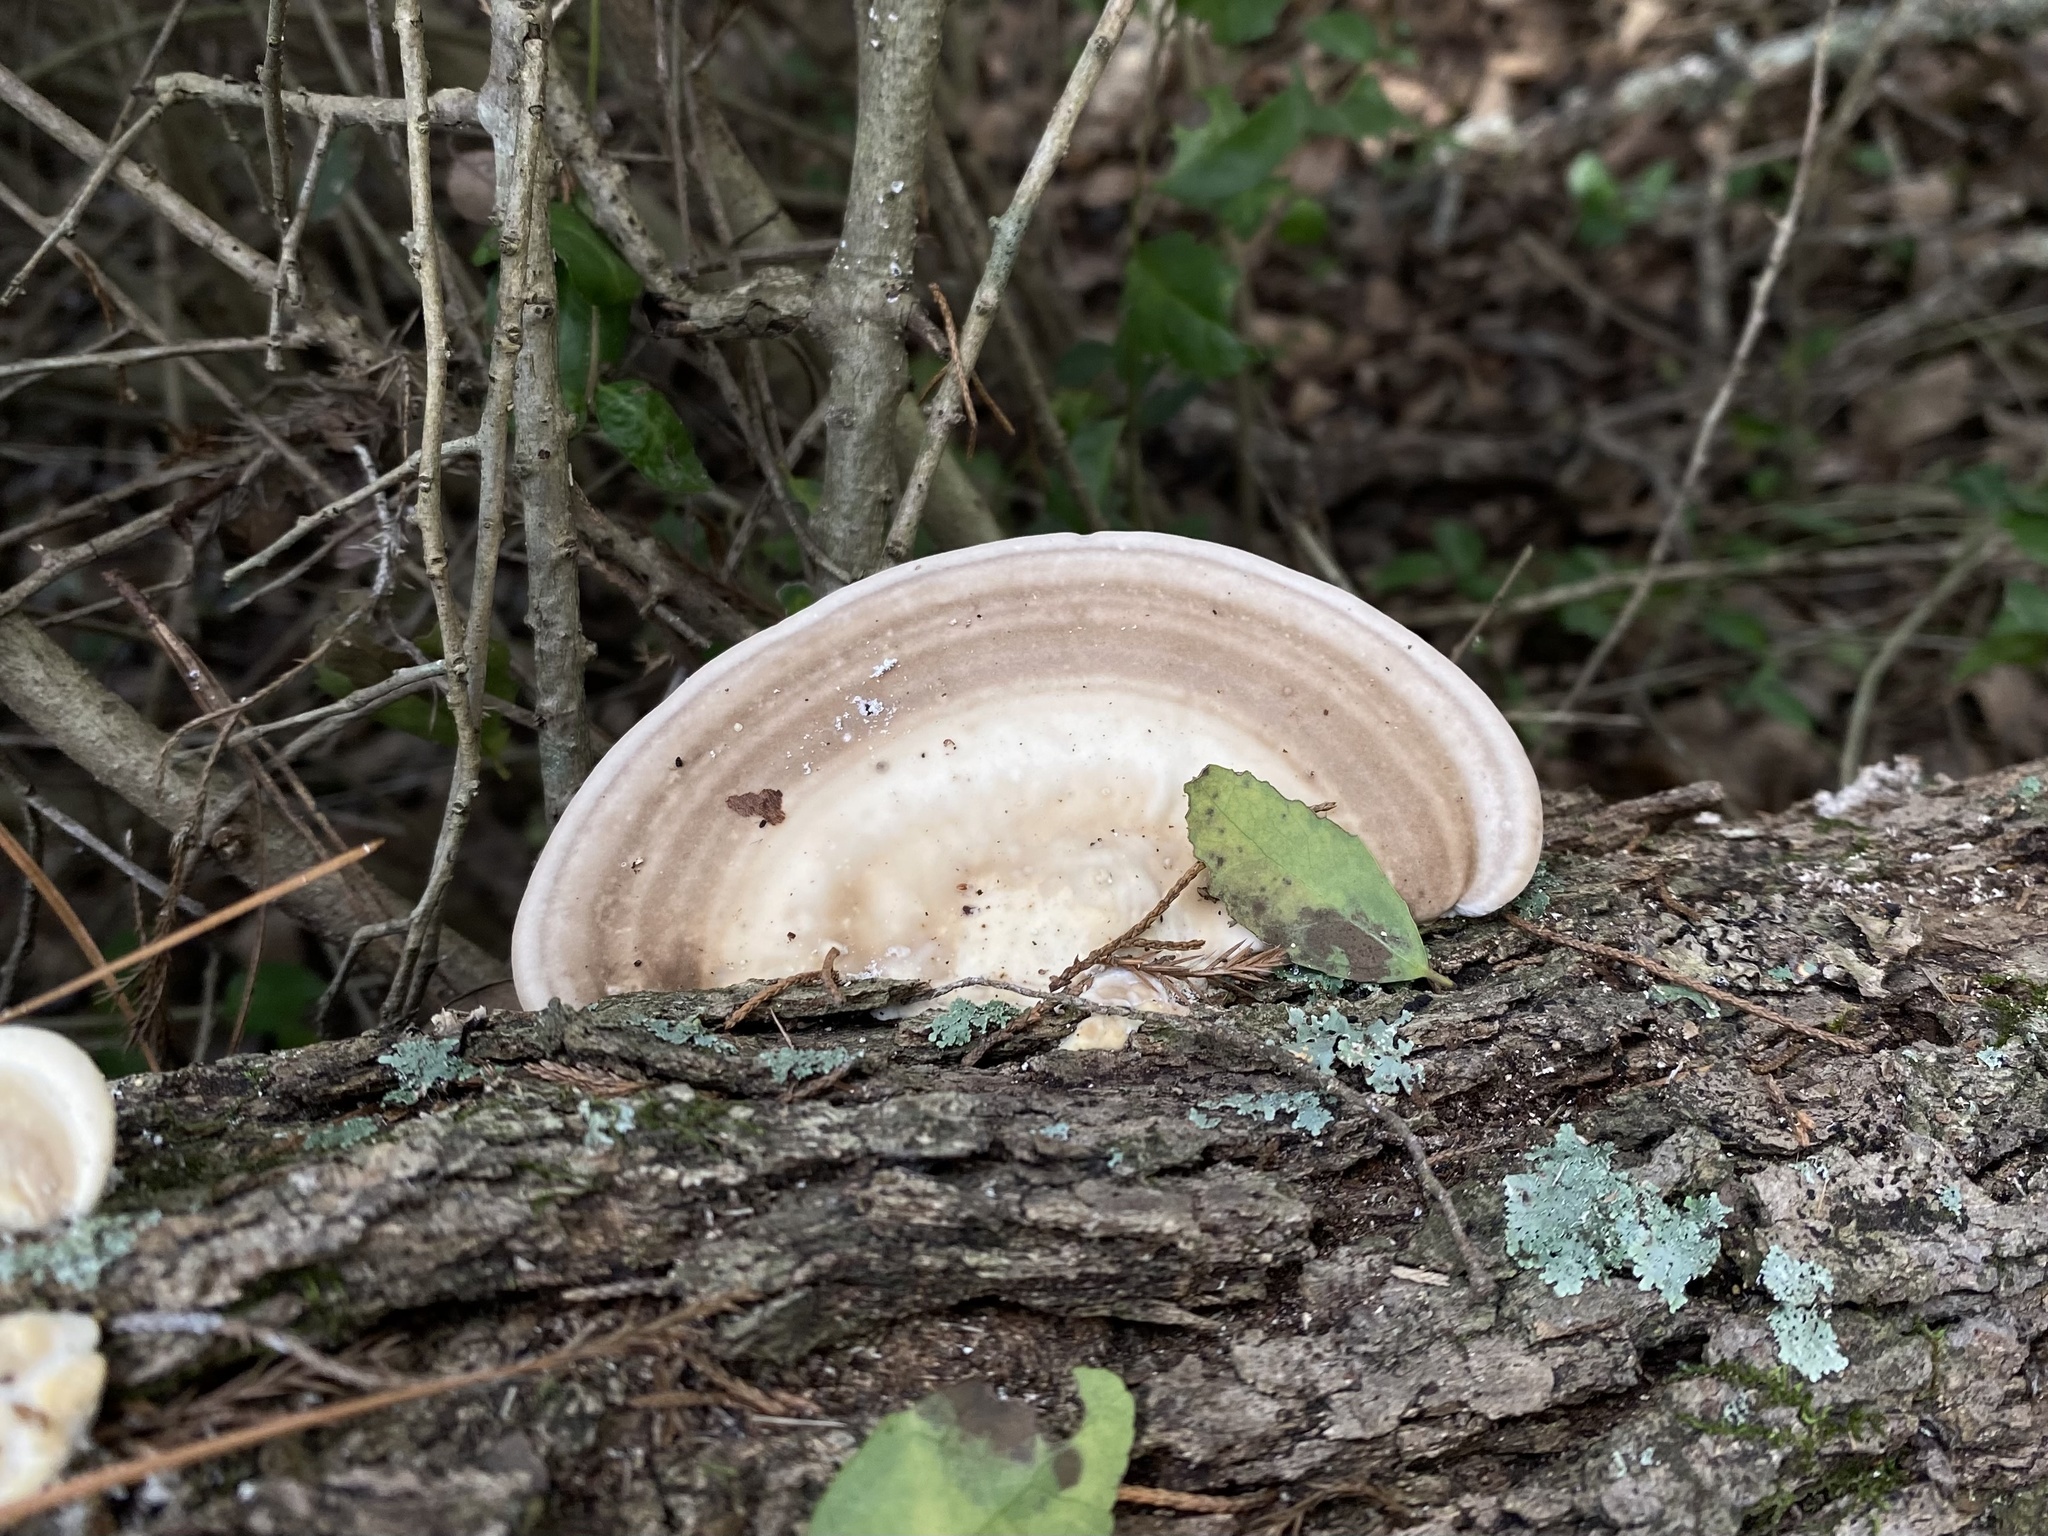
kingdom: Fungi
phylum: Basidiomycota
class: Agaricomycetes
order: Polyporales
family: Polyporaceae
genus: Trametes
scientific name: Trametes lactinea
